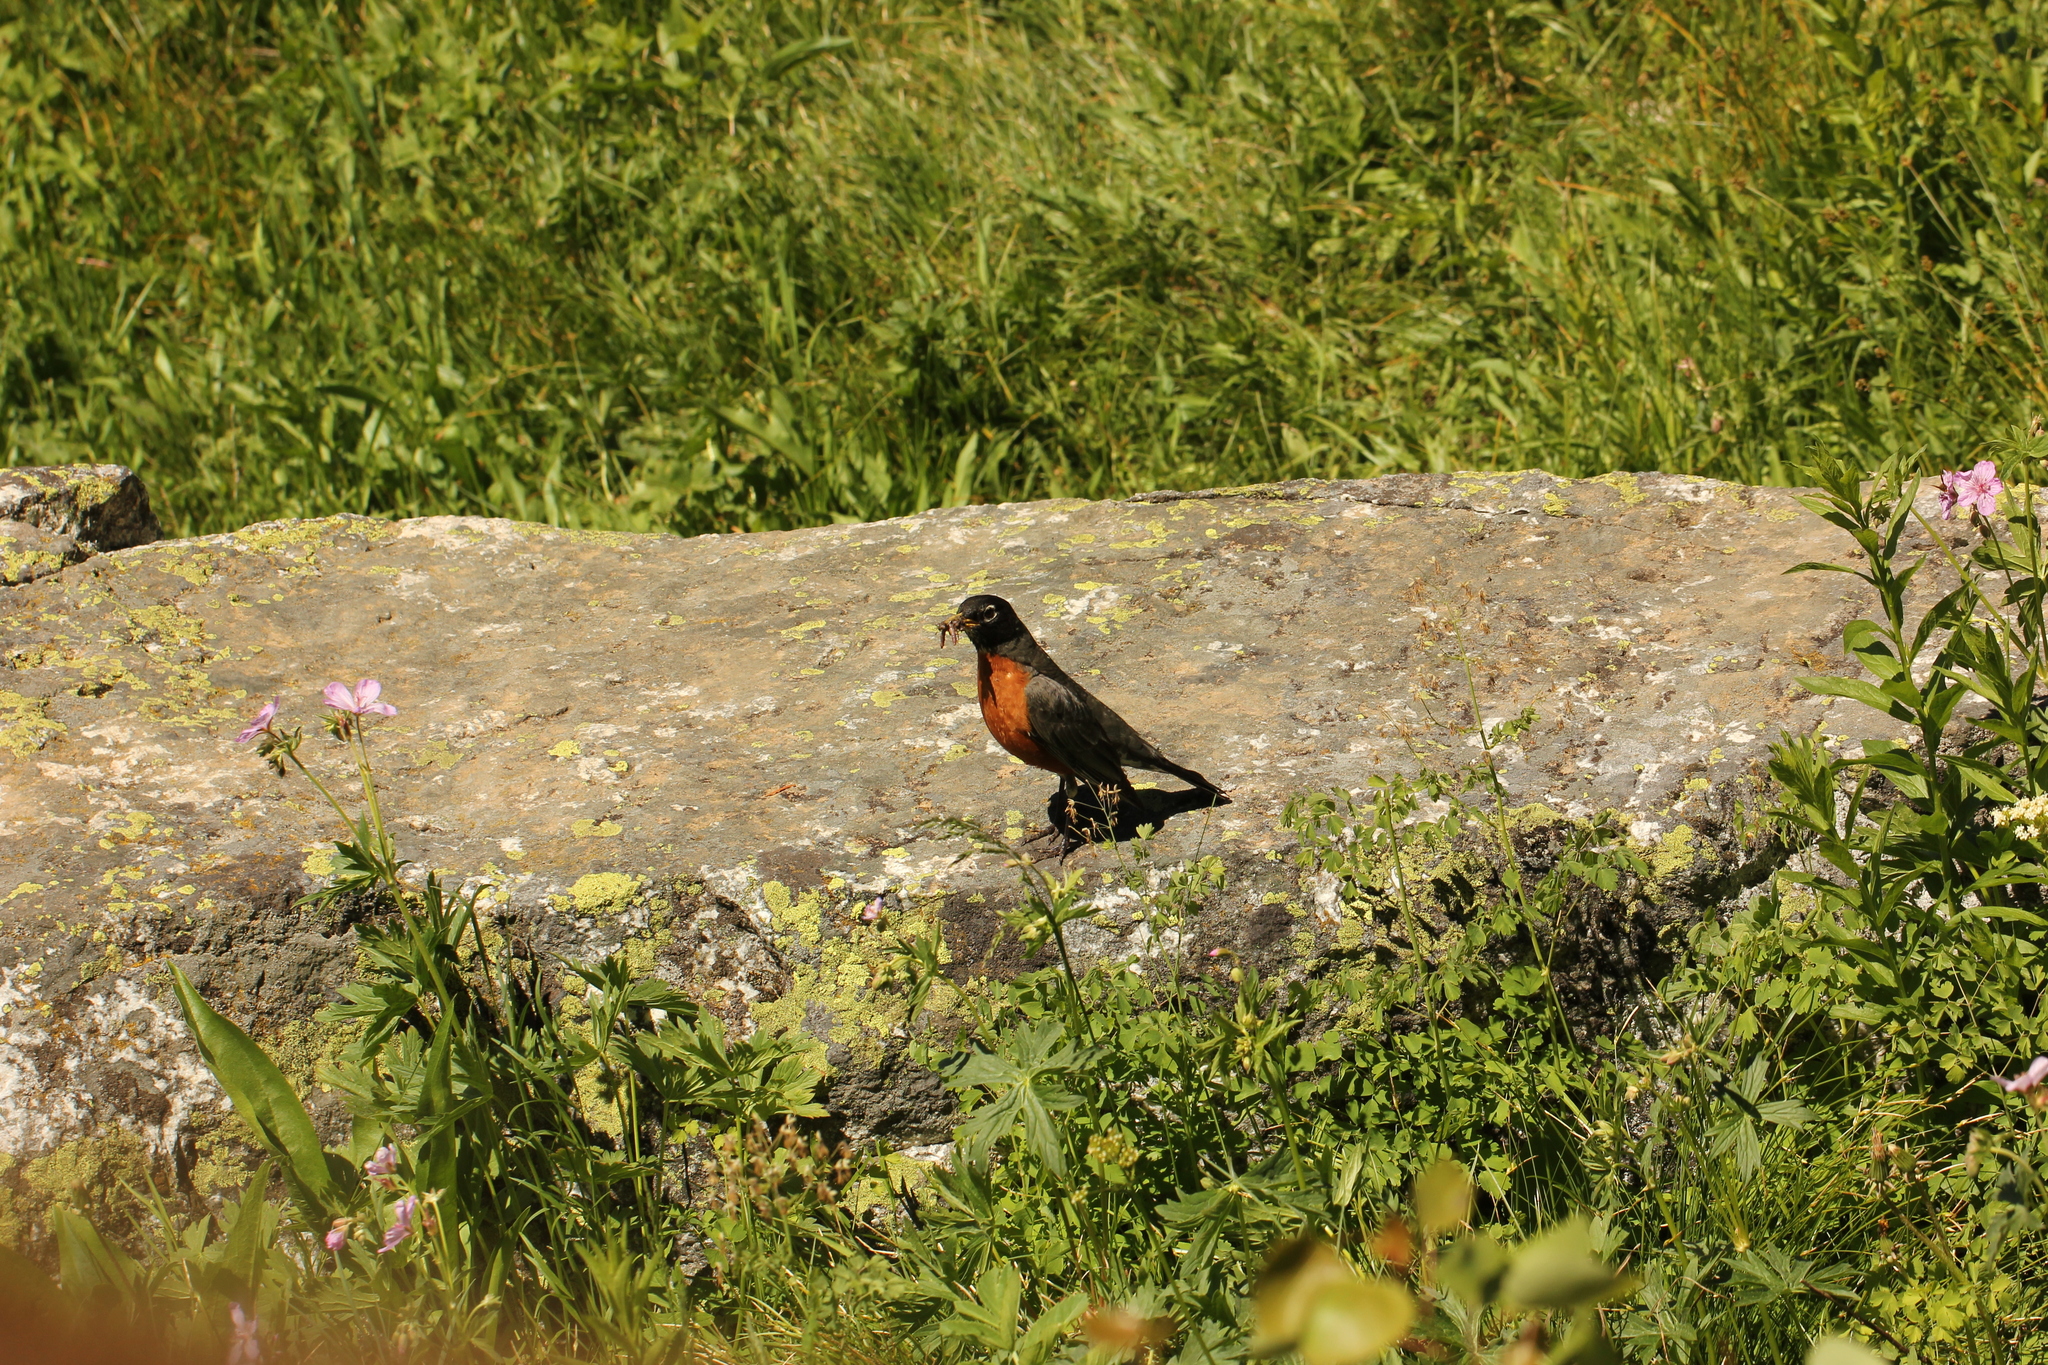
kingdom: Animalia
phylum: Chordata
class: Aves
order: Passeriformes
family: Turdidae
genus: Turdus
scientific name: Turdus migratorius
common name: American robin
